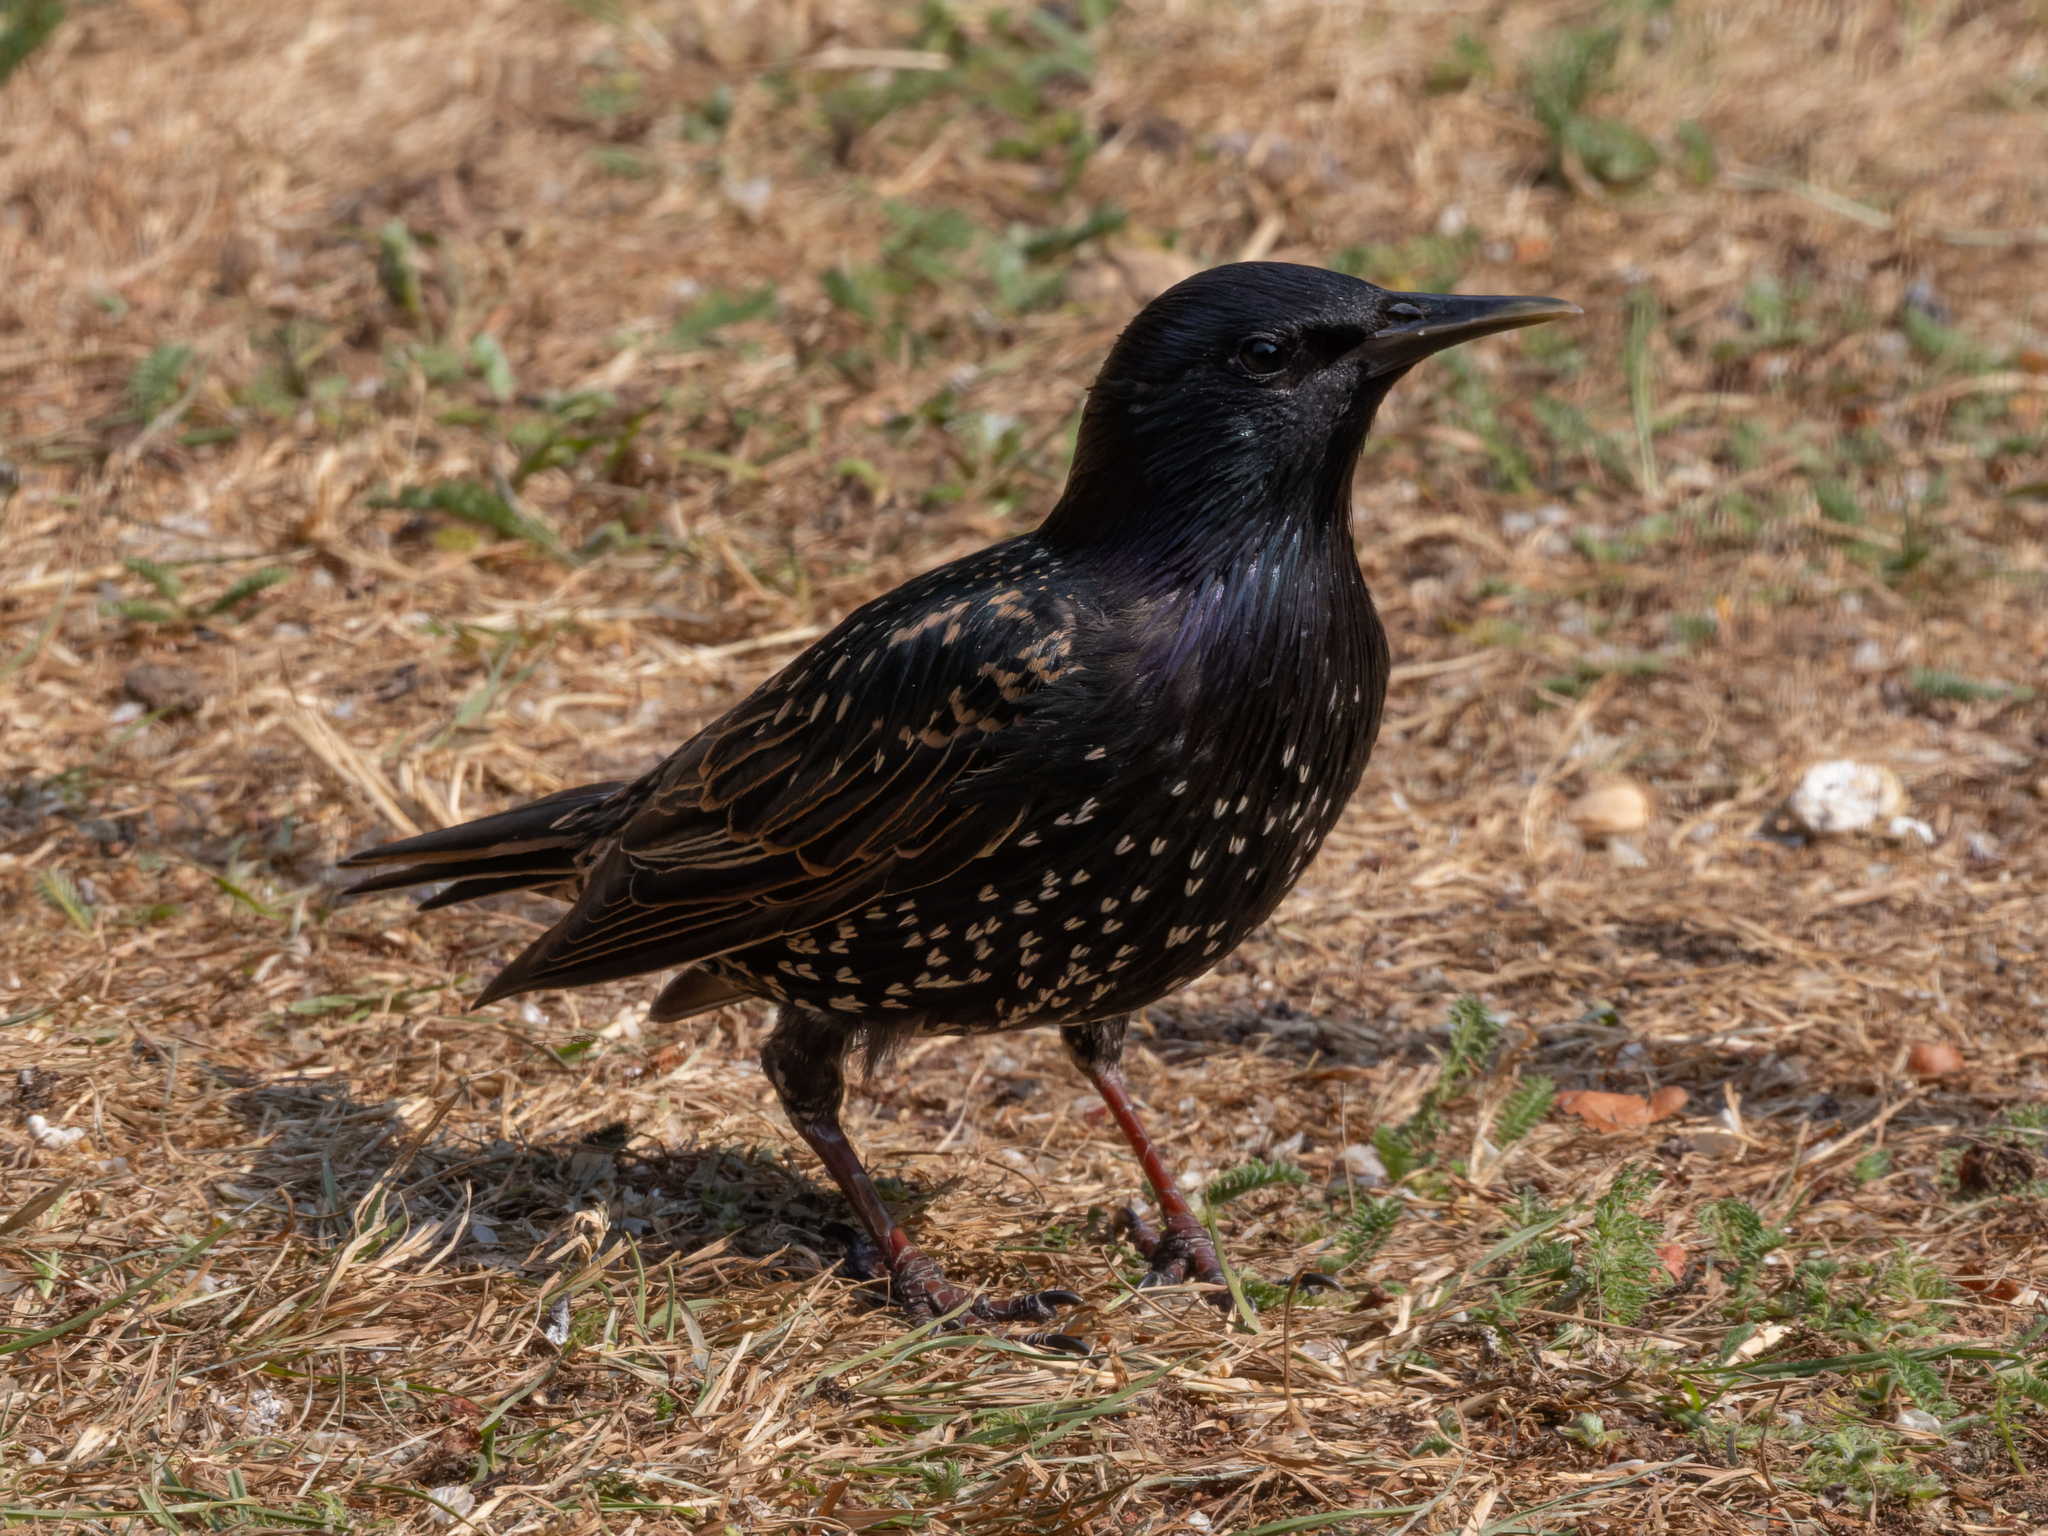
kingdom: Animalia
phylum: Chordata
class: Aves
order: Passeriformes
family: Sturnidae
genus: Sturnus
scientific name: Sturnus vulgaris
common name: Common starling
